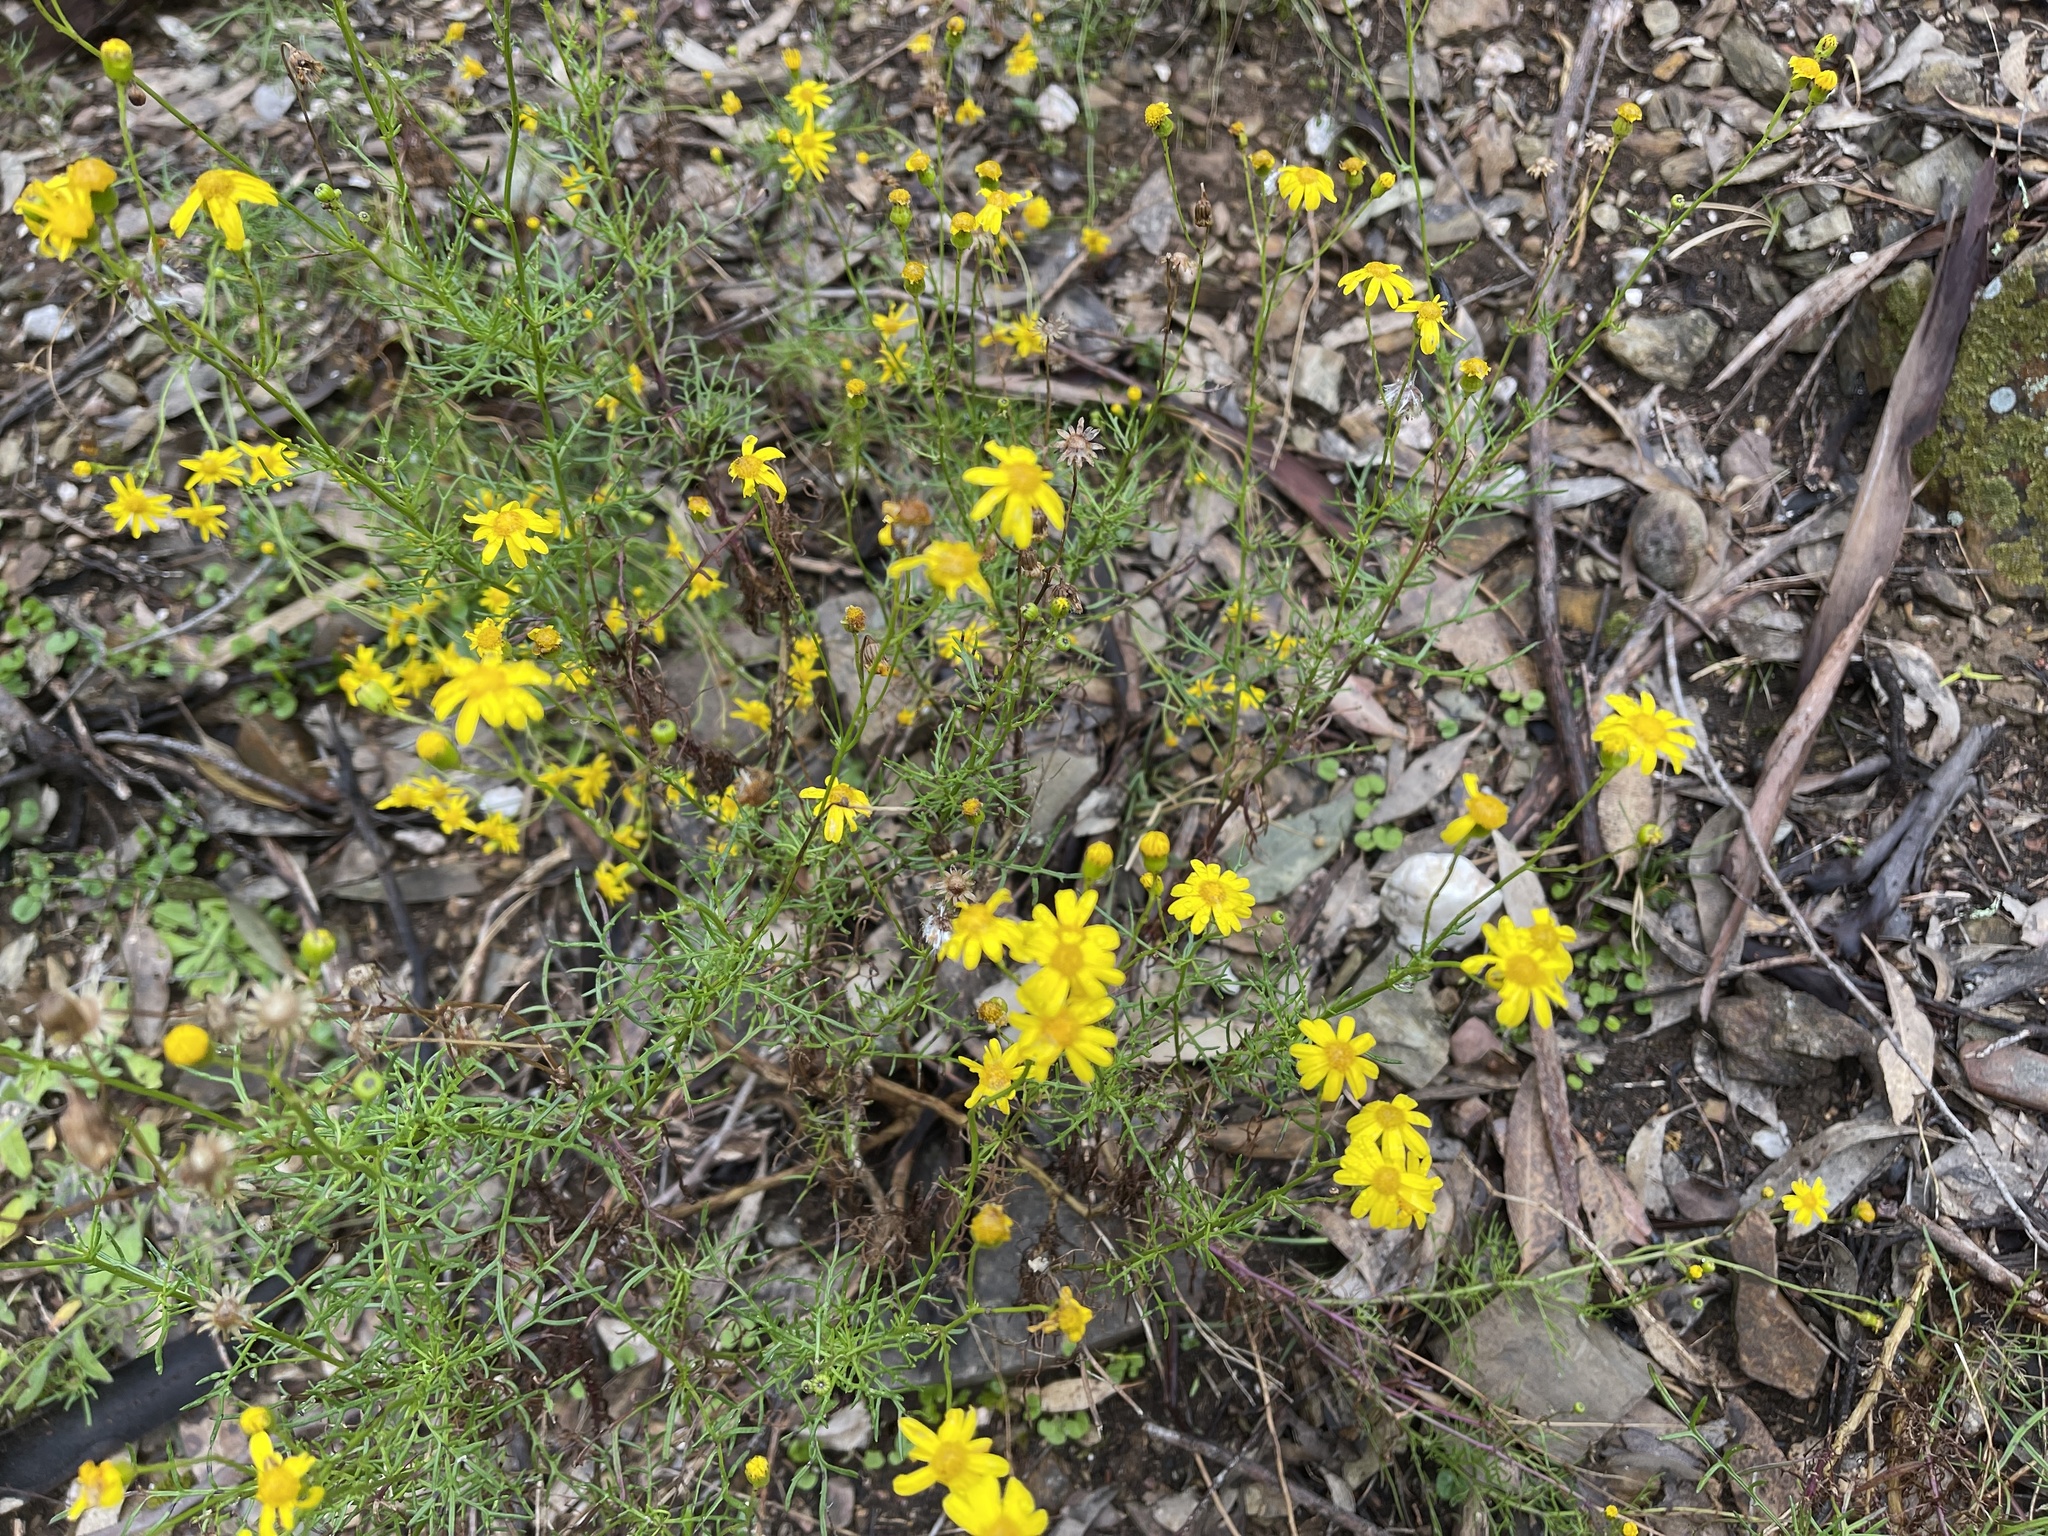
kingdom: Plantae
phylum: Tracheophyta
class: Magnoliopsida
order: Asterales
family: Asteraceae
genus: Senecio
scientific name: Senecio pinnatifolius
